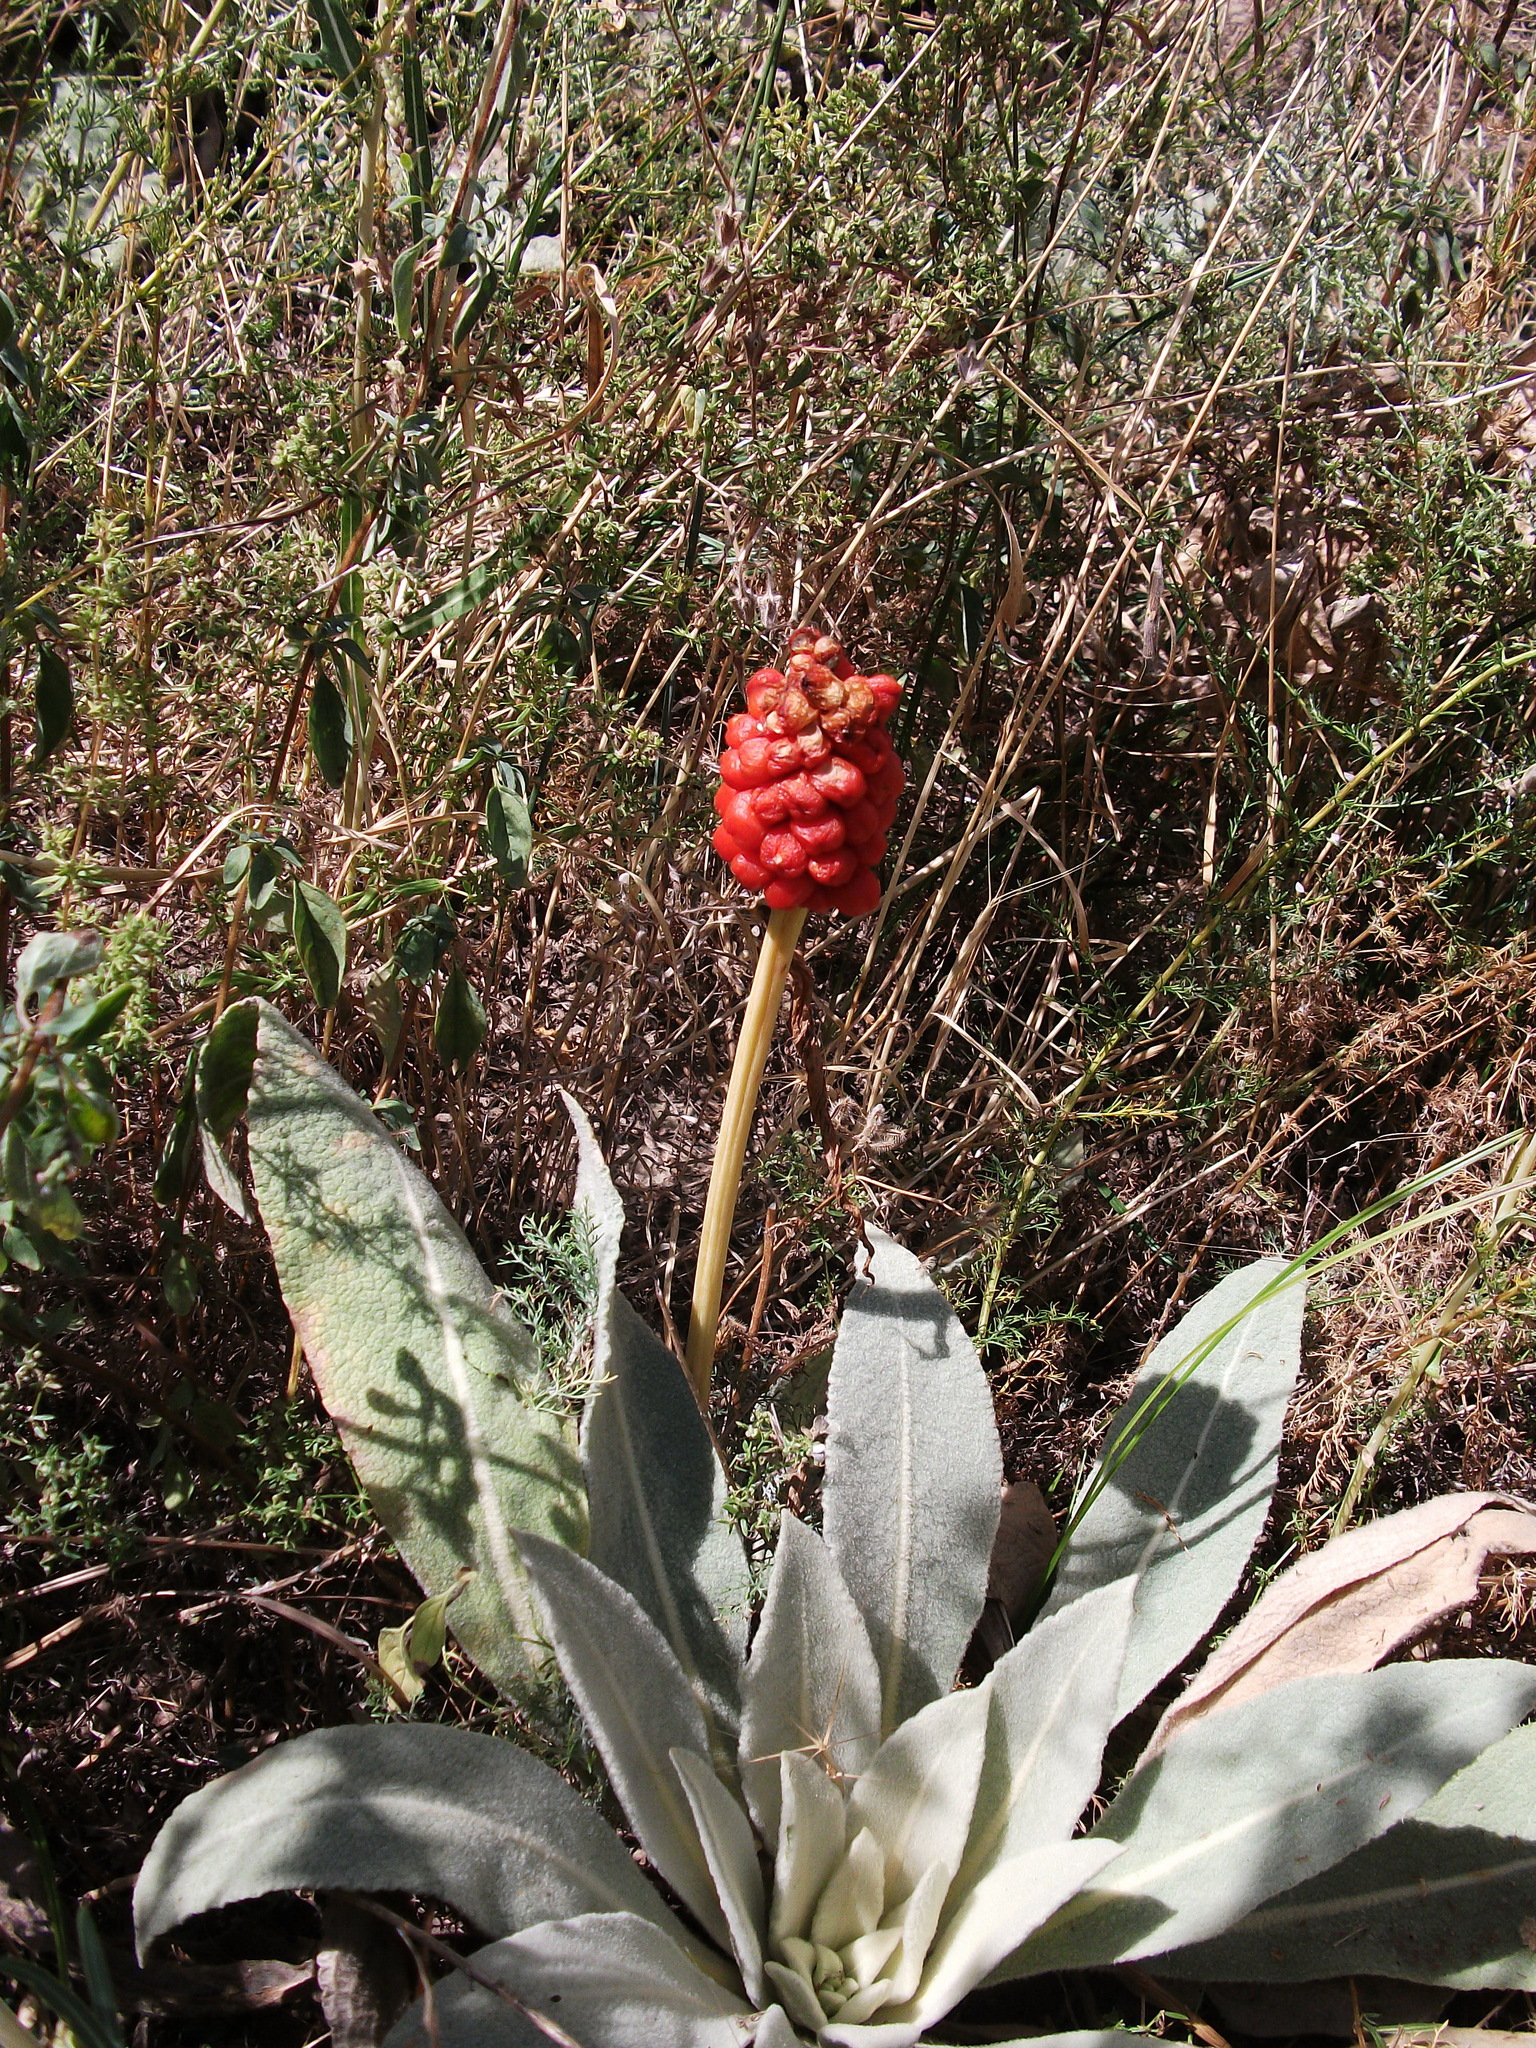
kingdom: Plantae
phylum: Tracheophyta
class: Liliopsida
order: Alismatales
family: Araceae
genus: Arum
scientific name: Arum korolkowii
